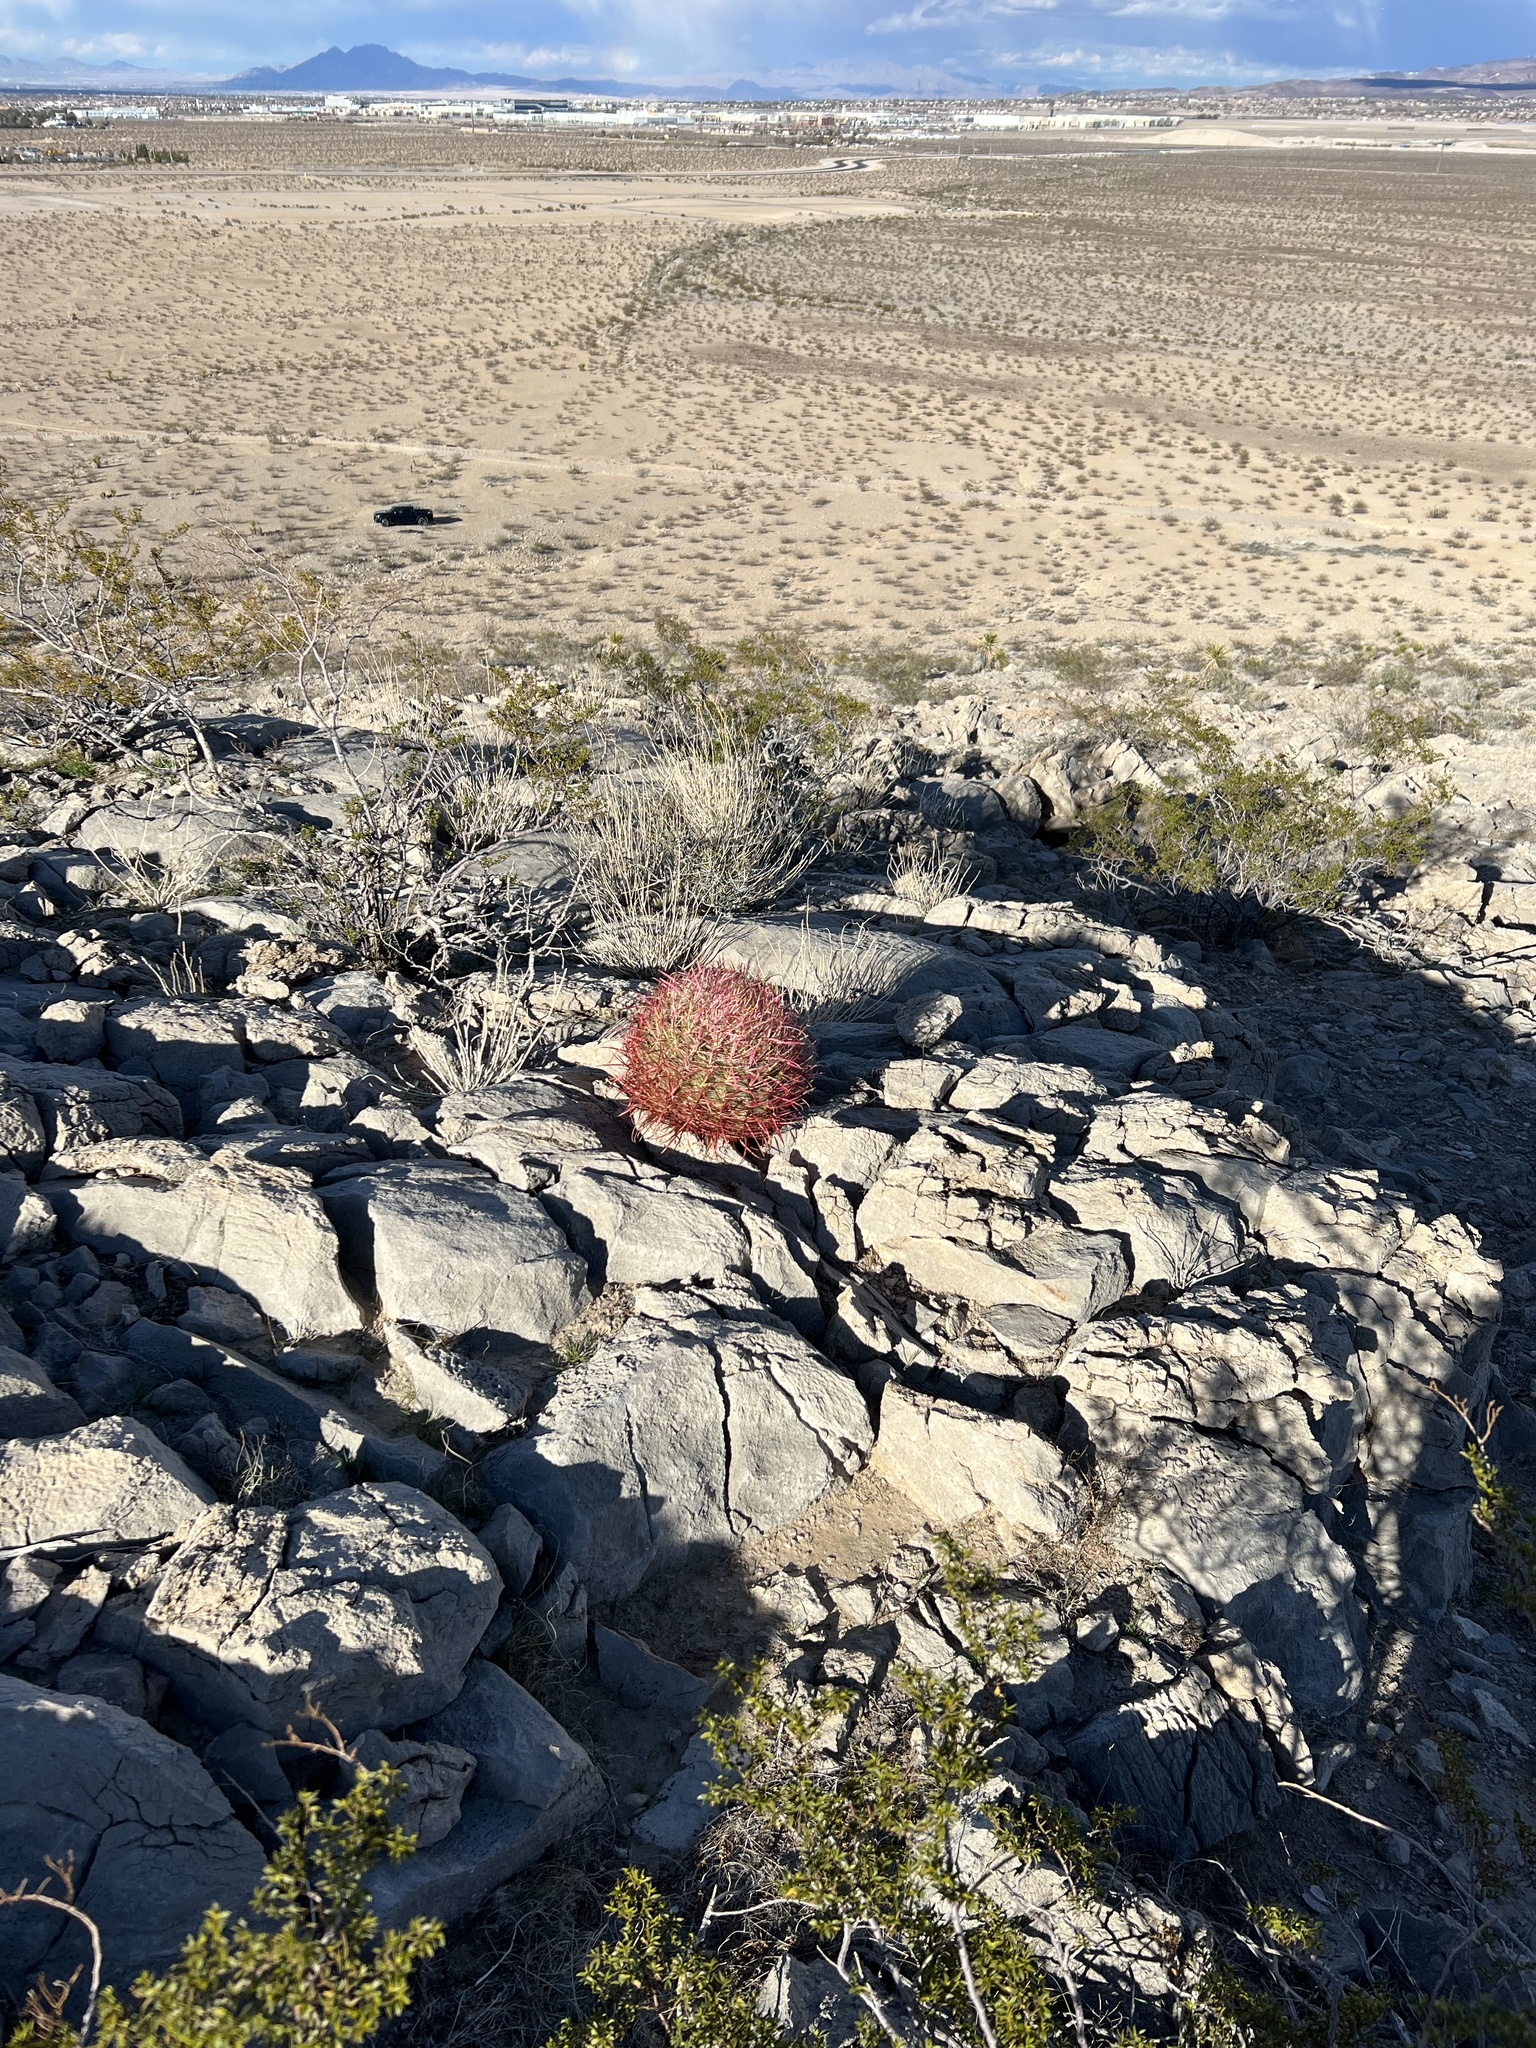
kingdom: Plantae
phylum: Tracheophyta
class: Magnoliopsida
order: Caryophyllales
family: Cactaceae
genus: Ferocactus
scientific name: Ferocactus cylindraceus
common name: California barrel cactus
